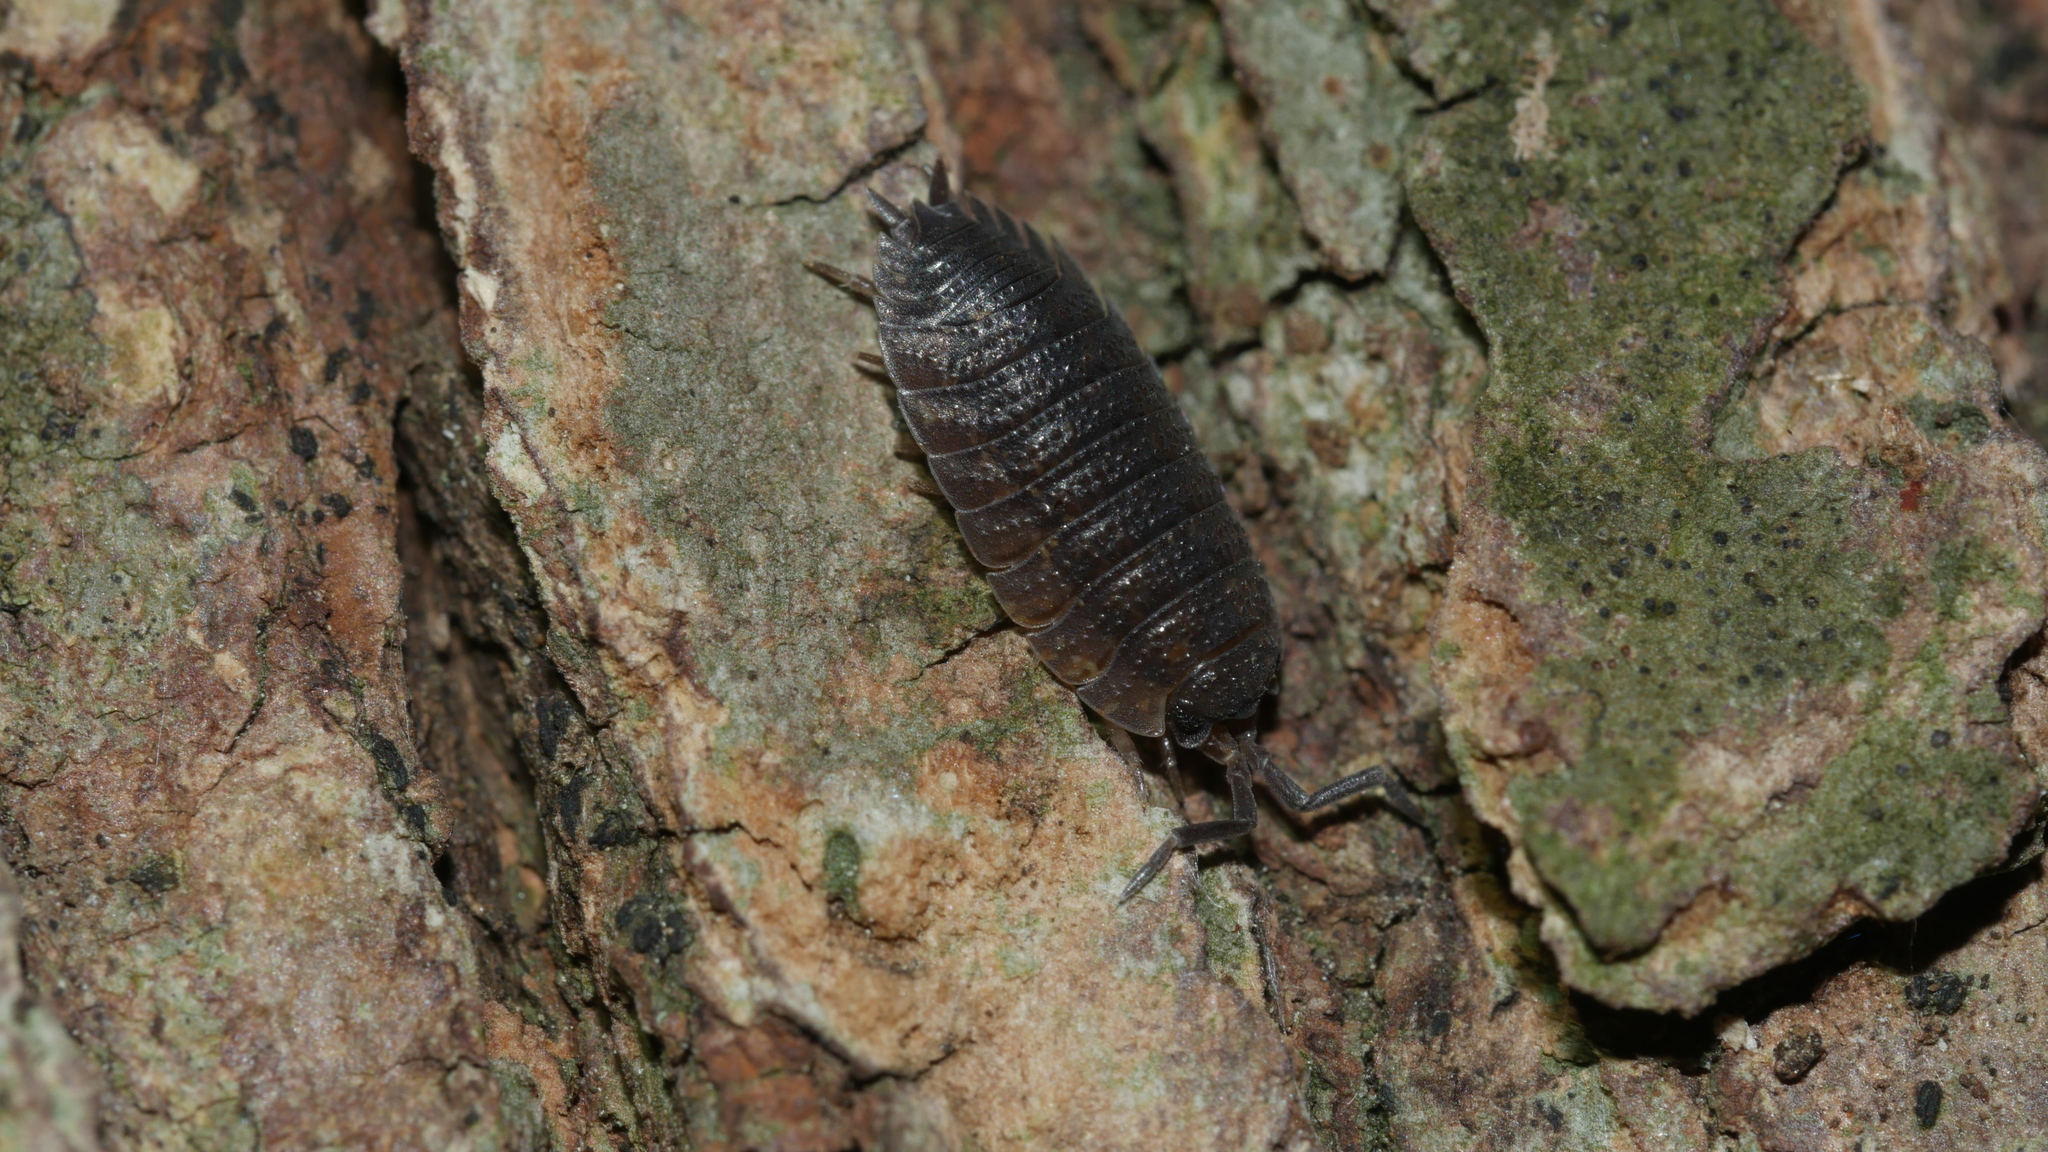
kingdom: Animalia
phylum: Arthropoda
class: Malacostraca
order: Isopoda
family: Porcellionidae
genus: Porcellio
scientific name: Porcellio scaber
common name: Common rough woodlouse
